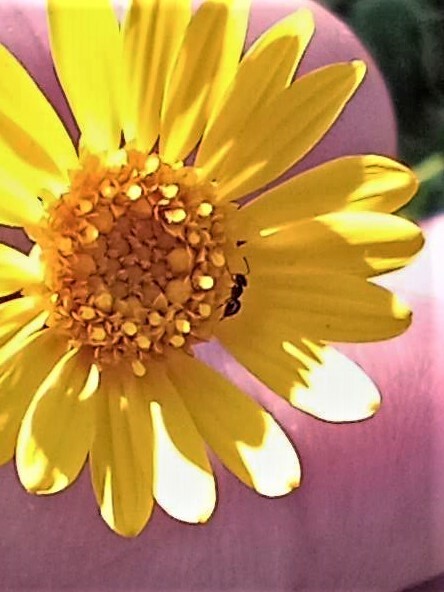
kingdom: Animalia
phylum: Arthropoda
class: Insecta
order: Hymenoptera
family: Formicidae
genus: Brachymyrmex
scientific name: Brachymyrmex patagonicus
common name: Dark rover ant
